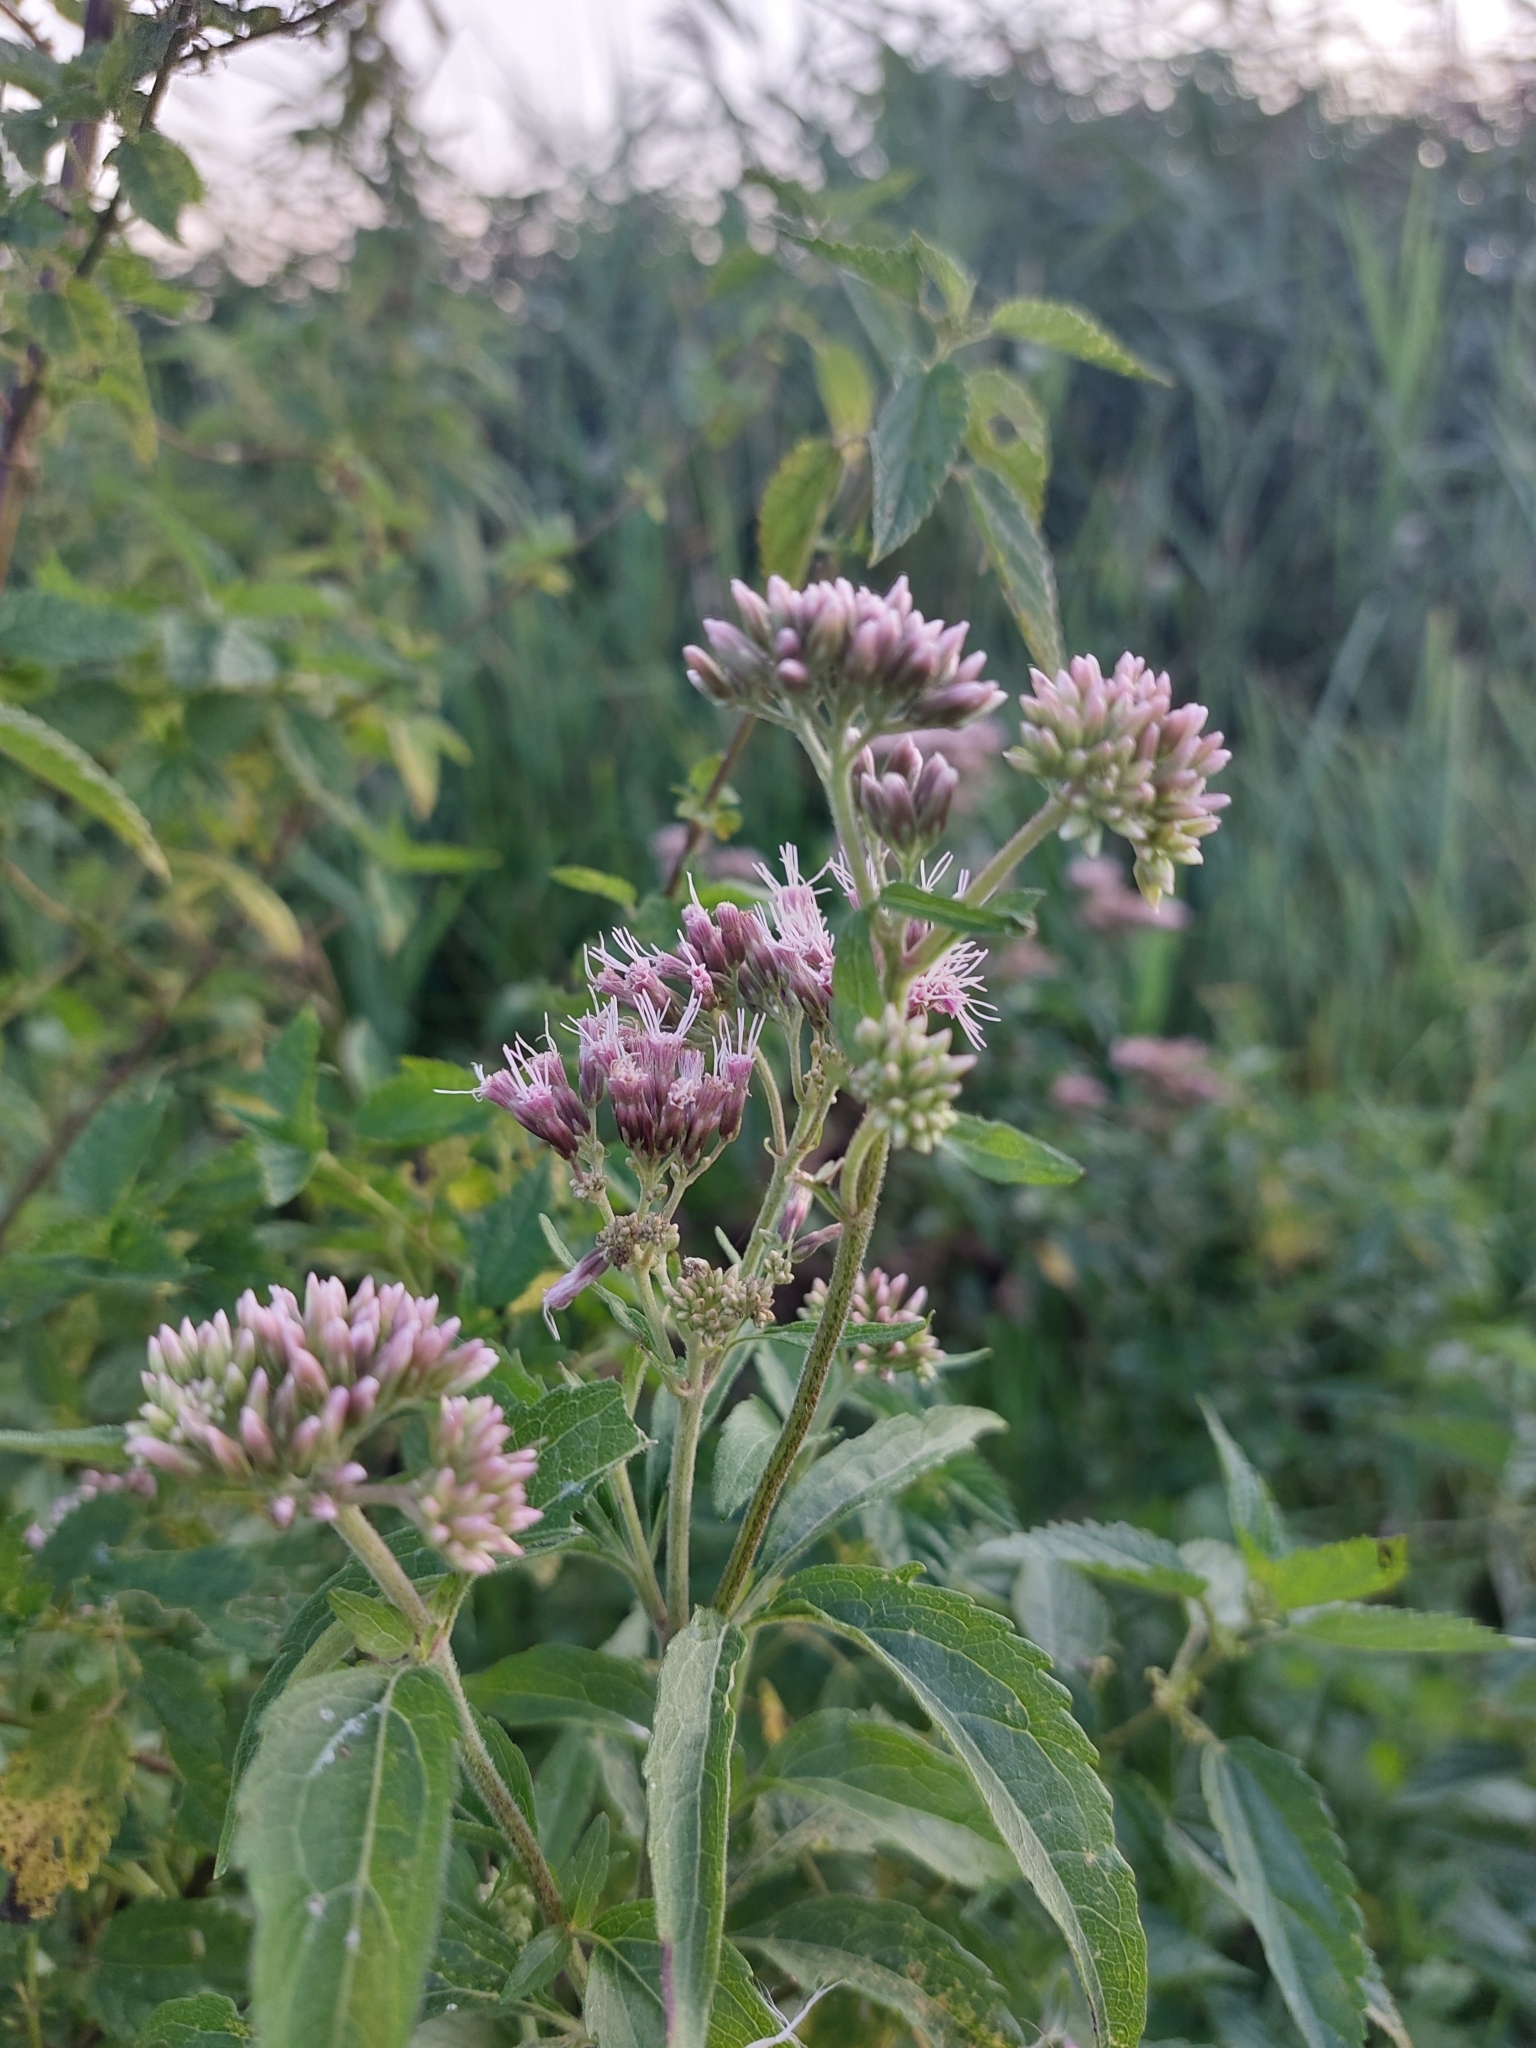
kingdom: Plantae
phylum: Tracheophyta
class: Magnoliopsida
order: Asterales
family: Asteraceae
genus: Eupatorium
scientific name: Eupatorium cannabinum
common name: Hemp-agrimony
